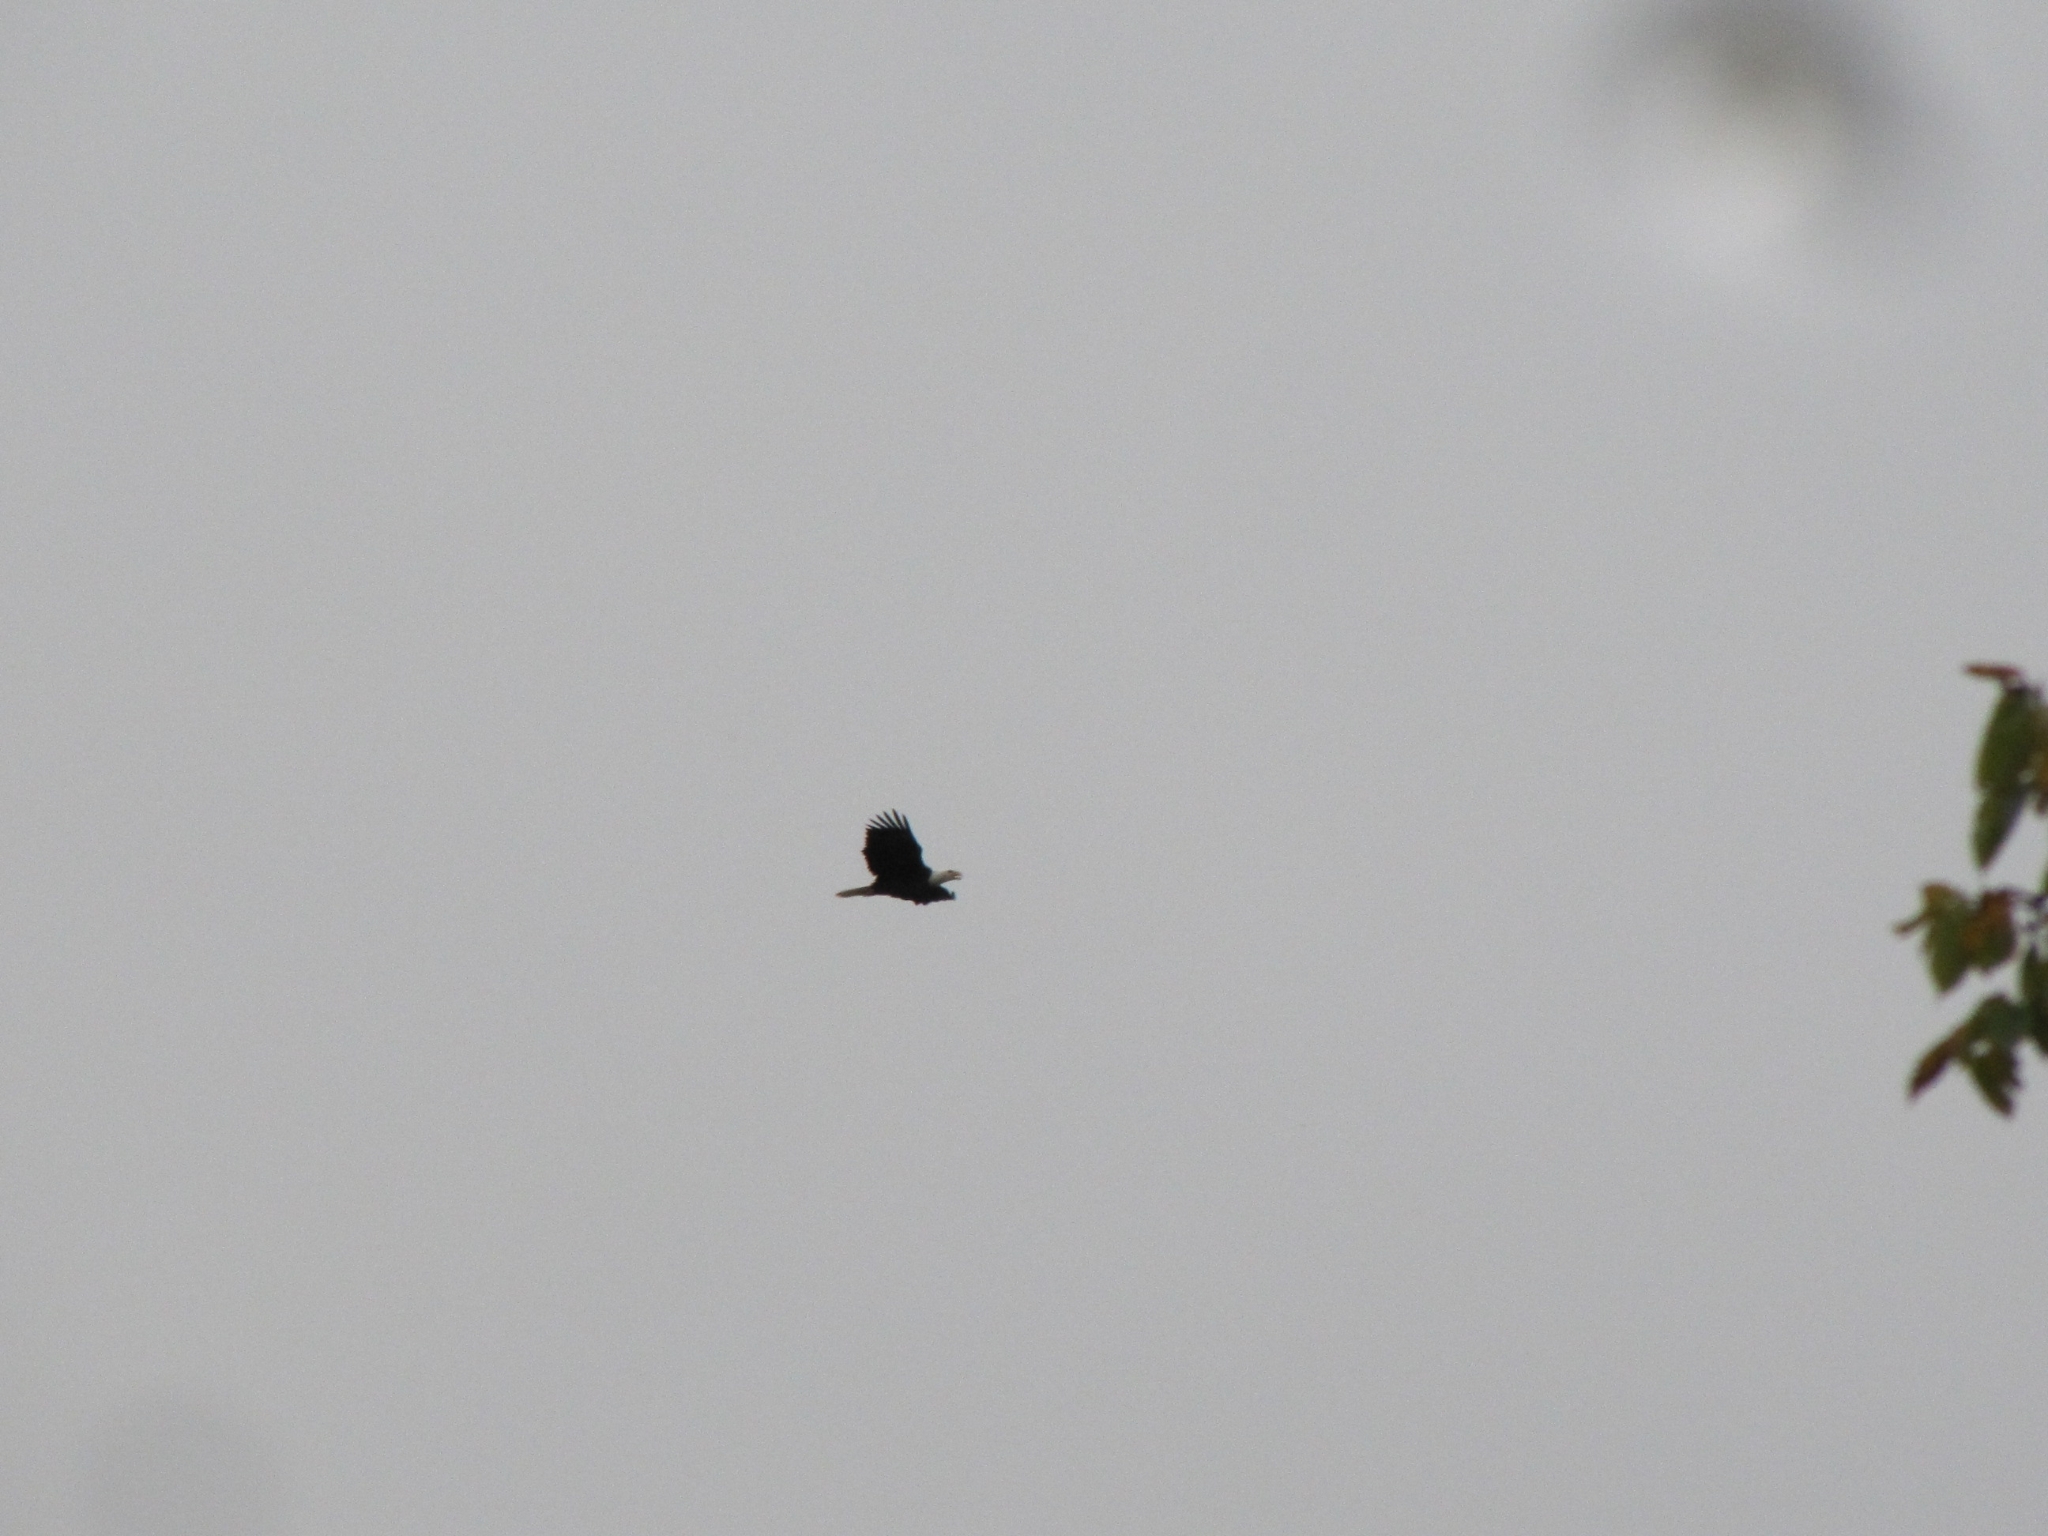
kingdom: Animalia
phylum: Chordata
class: Aves
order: Accipitriformes
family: Accipitridae
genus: Haliaeetus
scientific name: Haliaeetus leucocephalus
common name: Bald eagle
